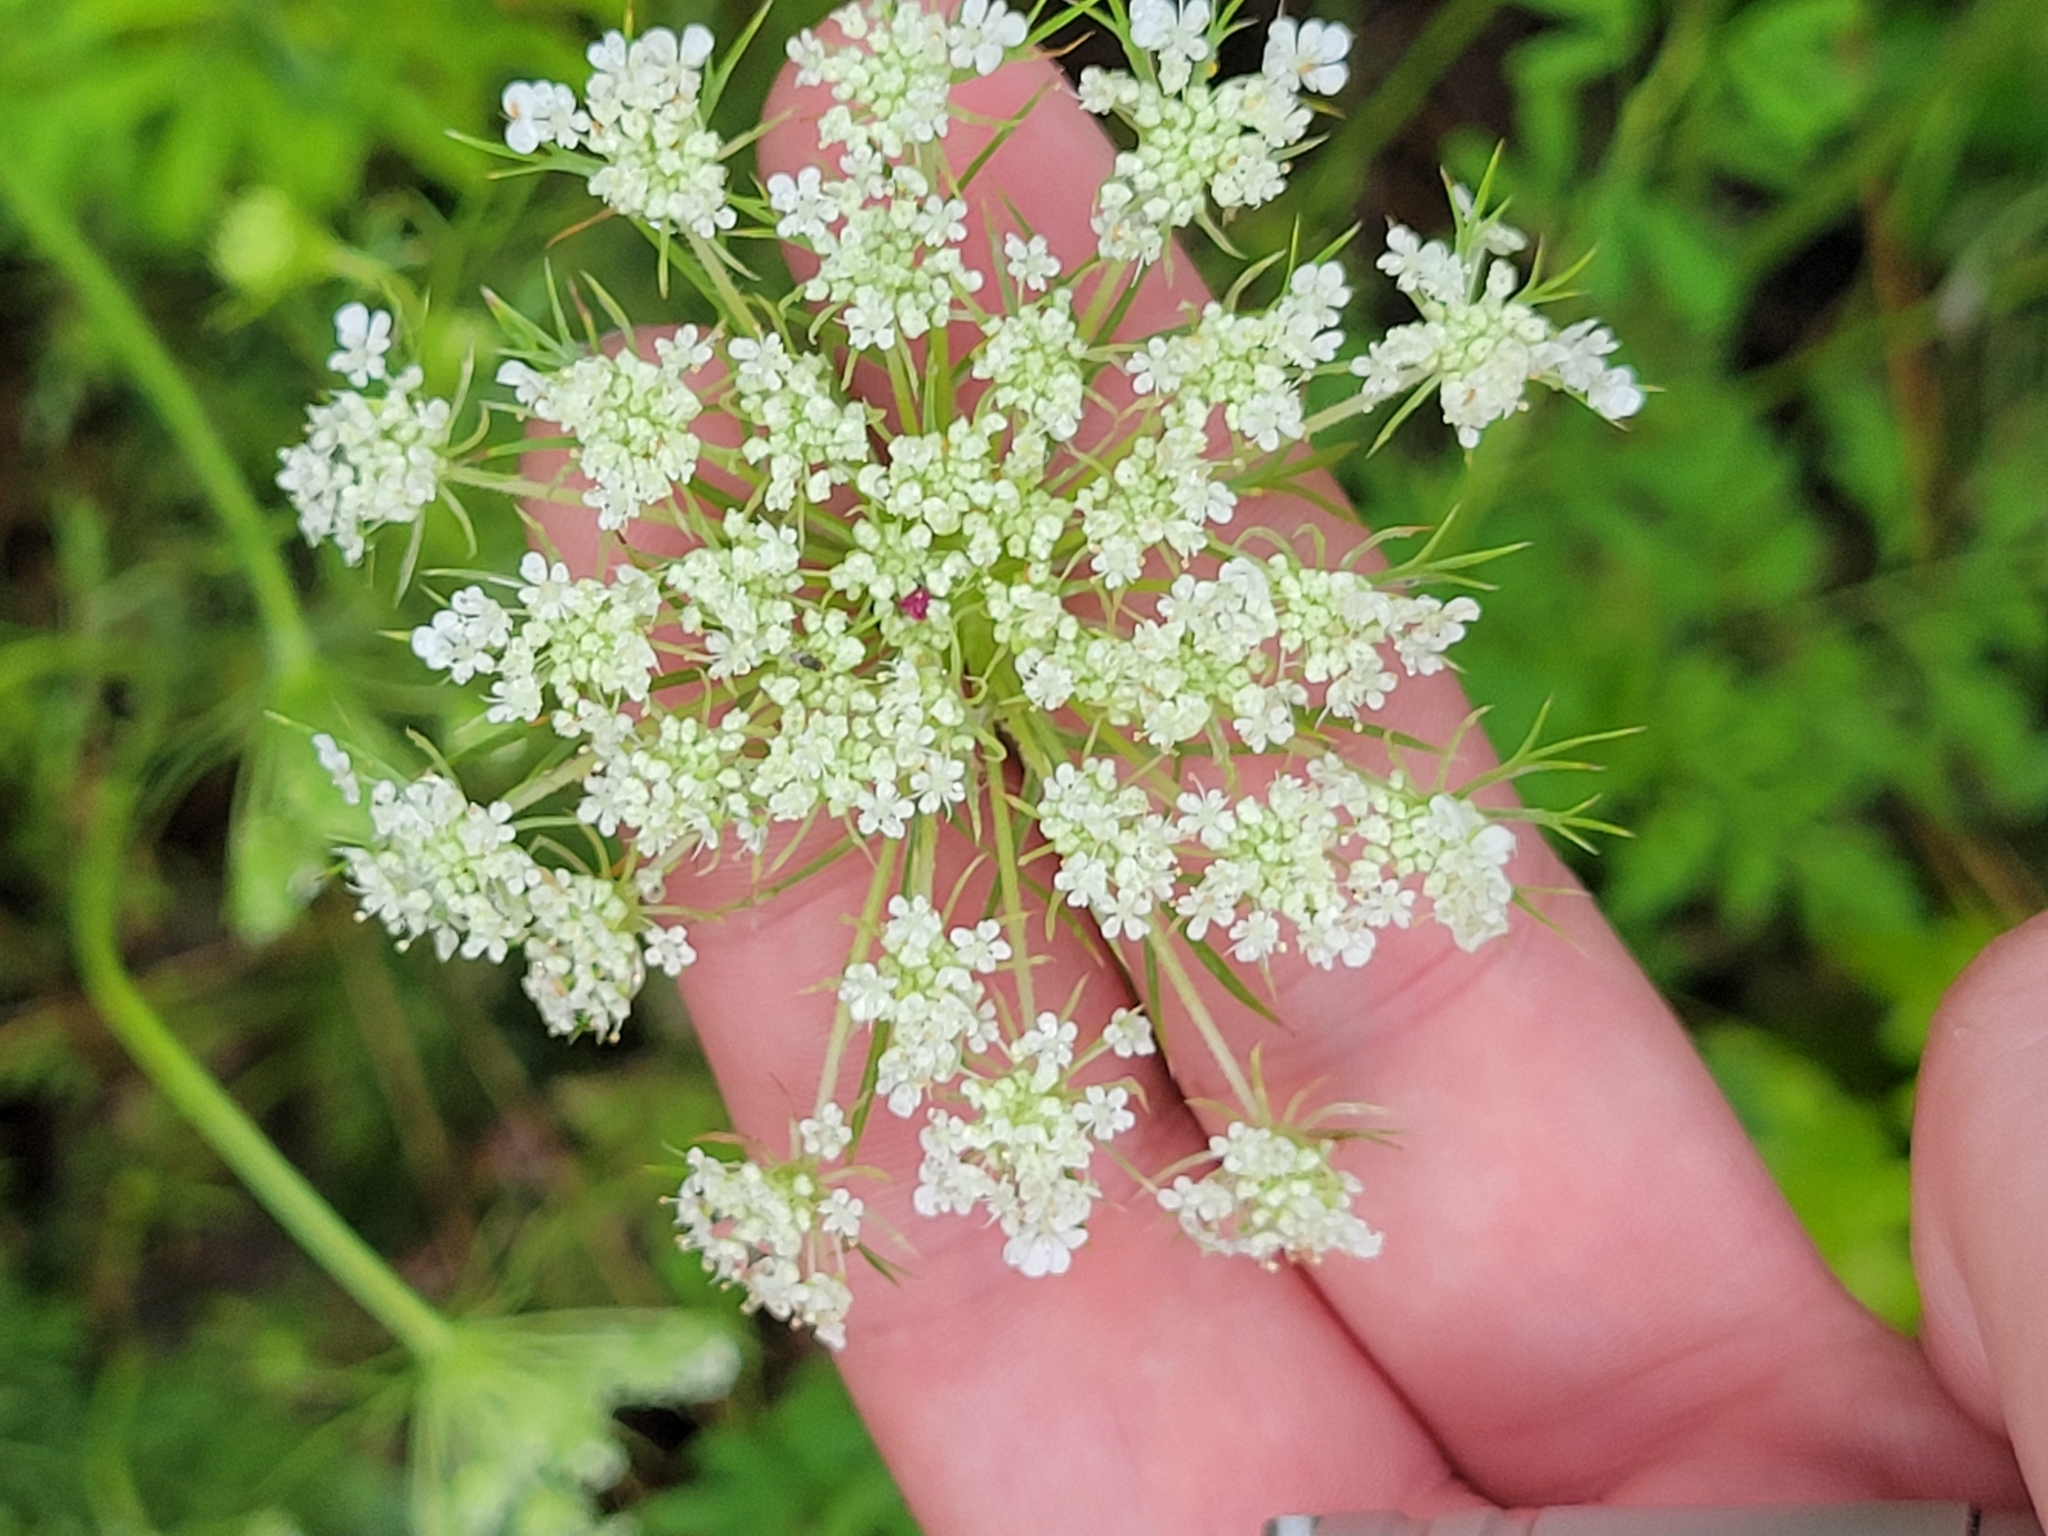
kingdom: Plantae
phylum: Tracheophyta
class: Magnoliopsida
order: Apiales
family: Apiaceae
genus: Daucus
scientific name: Daucus carota
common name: Wild carrot
